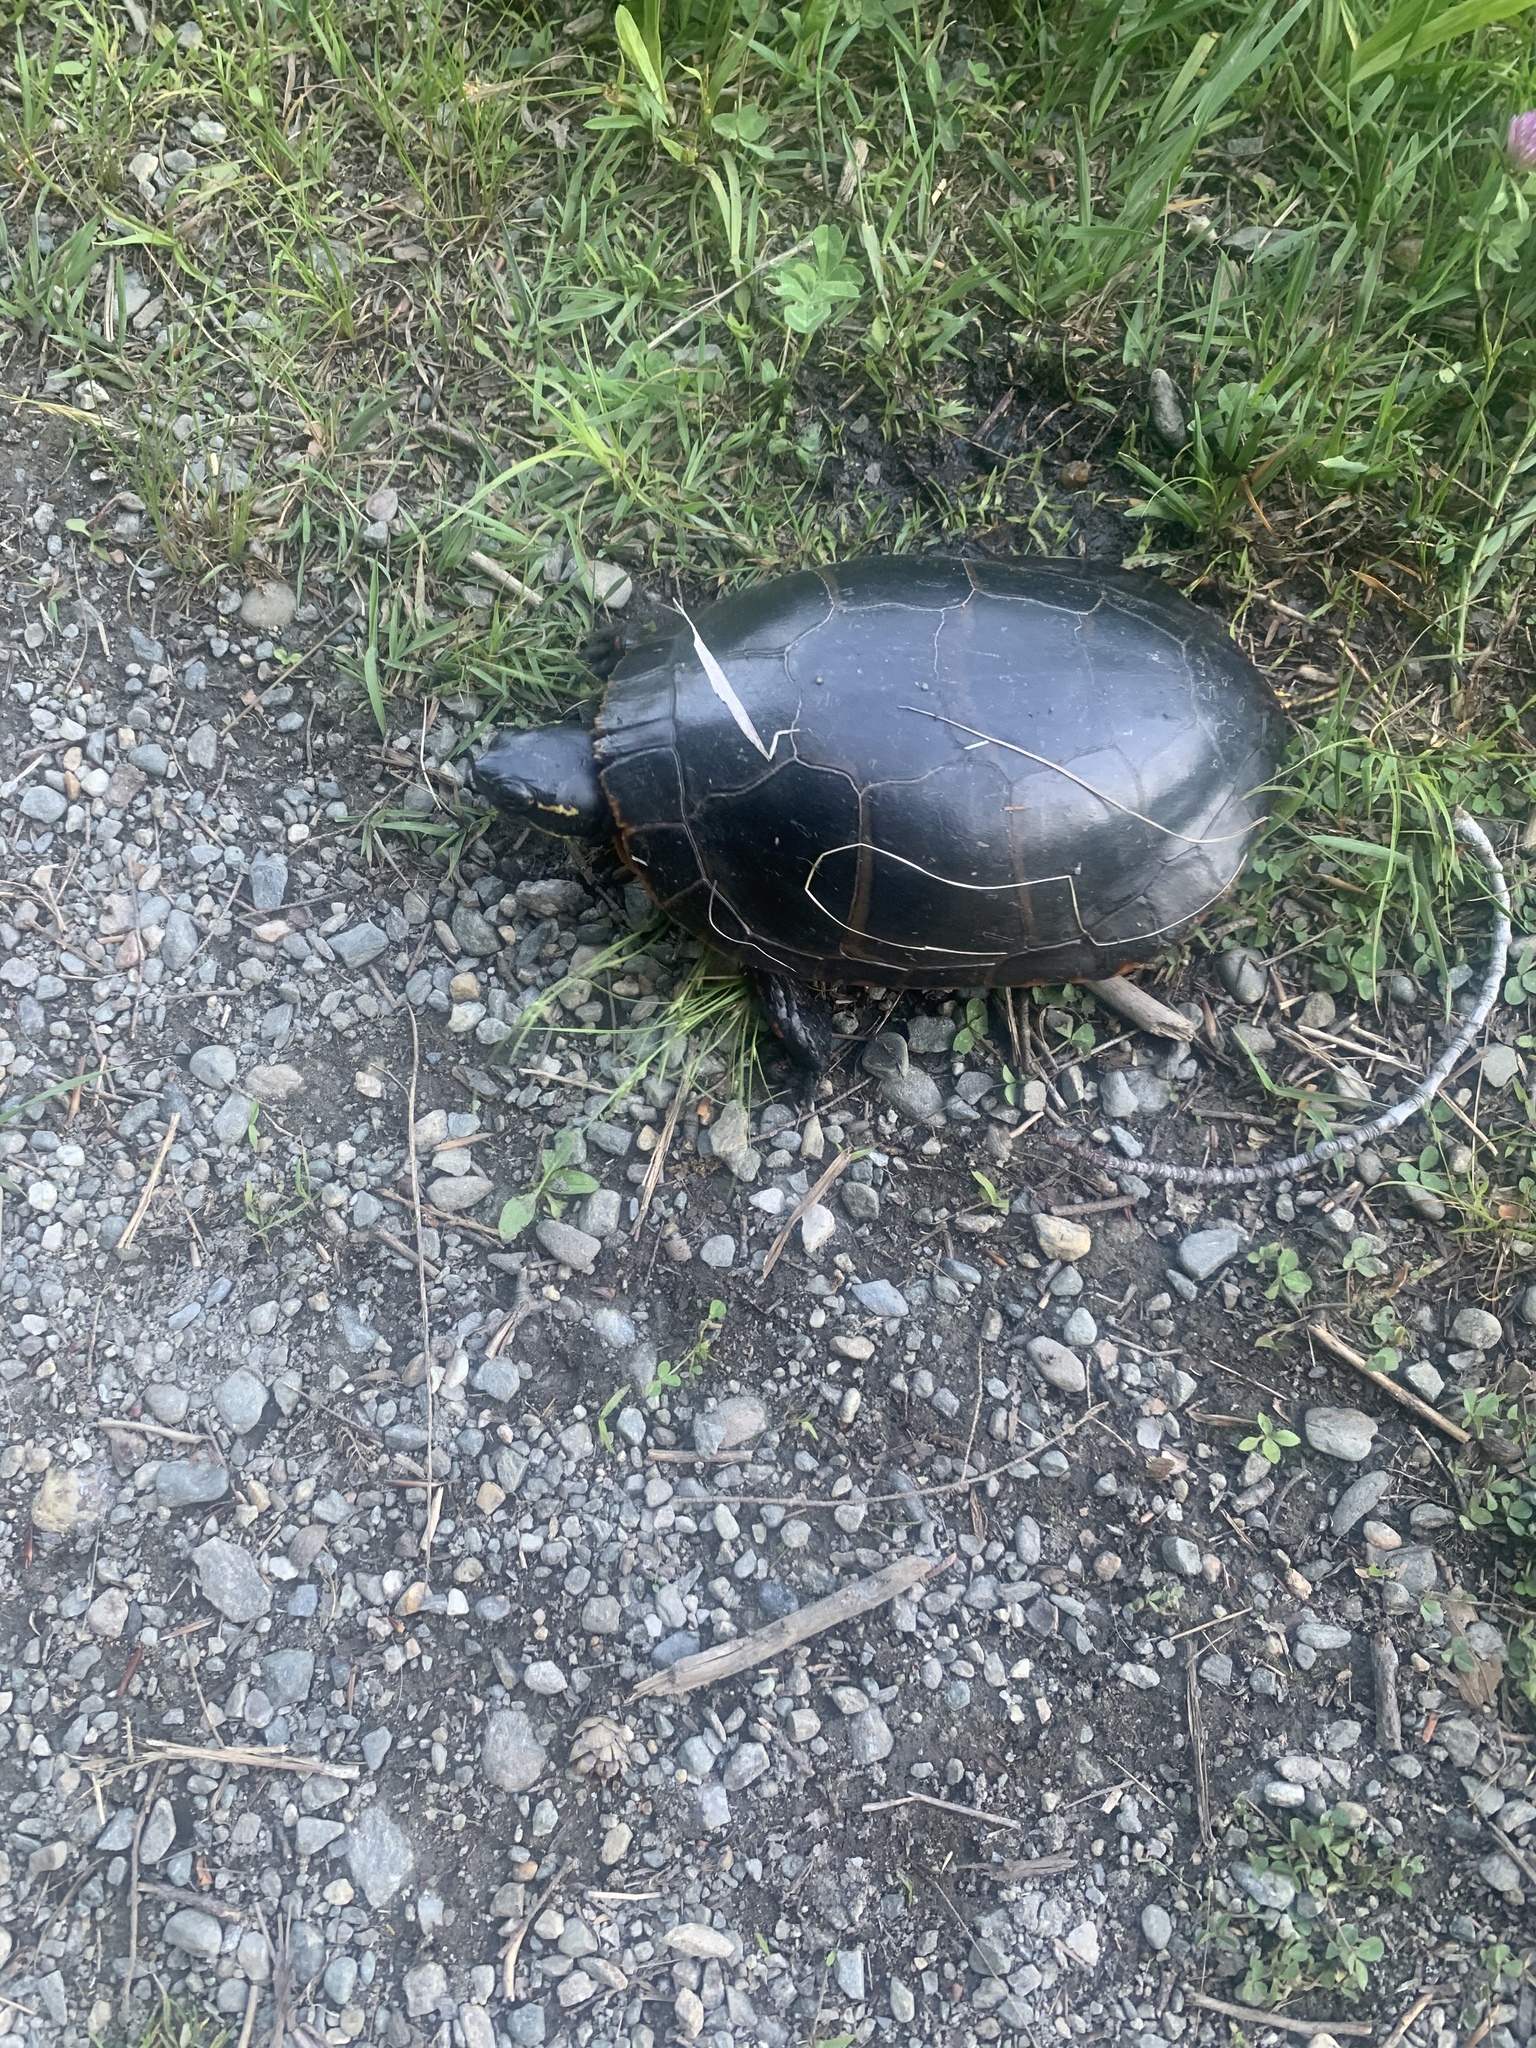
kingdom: Animalia
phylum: Chordata
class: Testudines
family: Emydidae
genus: Chrysemys
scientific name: Chrysemys picta
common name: Painted turtle
